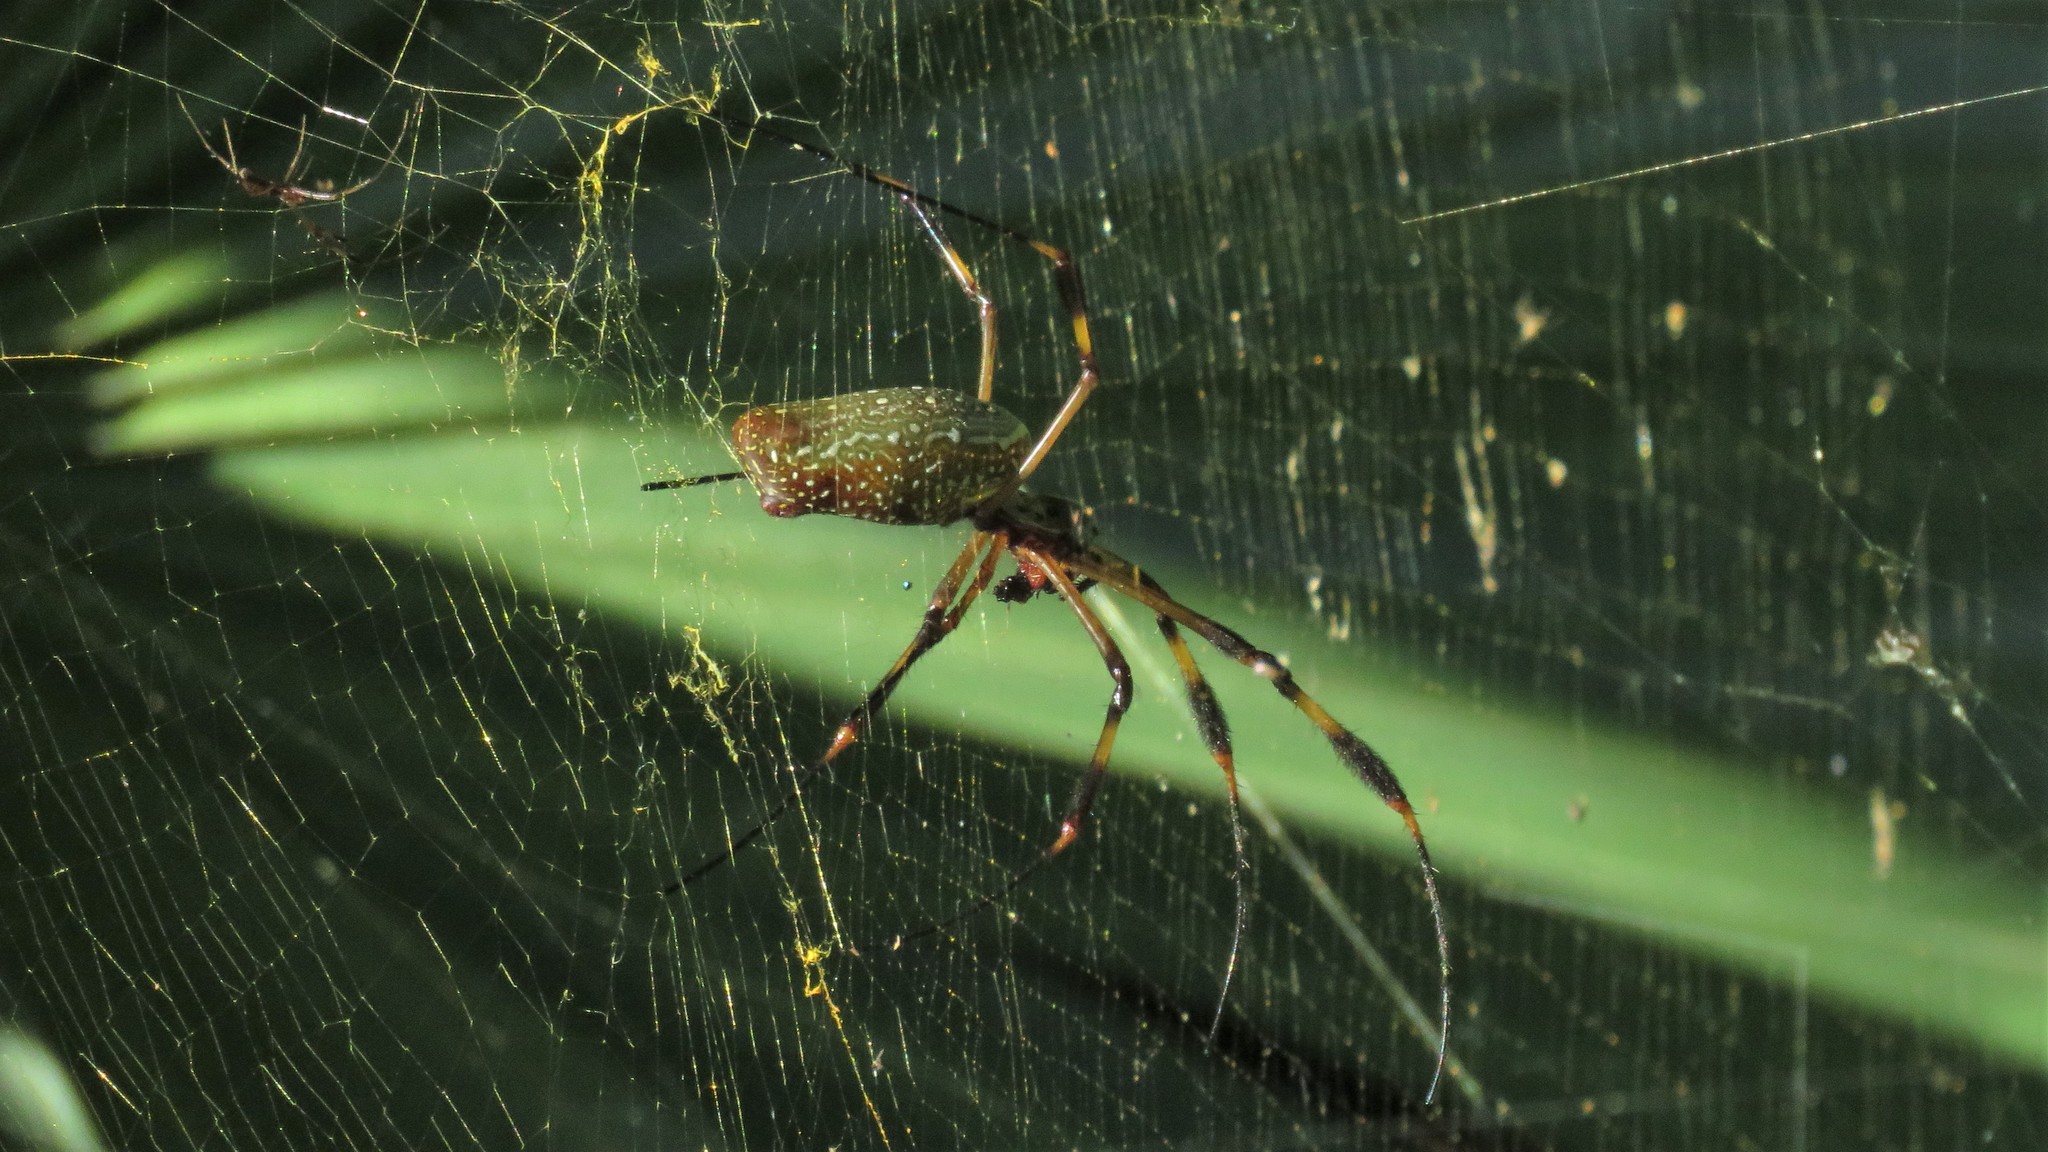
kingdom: Animalia
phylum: Arthropoda
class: Arachnida
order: Araneae
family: Araneidae
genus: Trichonephila
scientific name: Trichonephila clavipes
